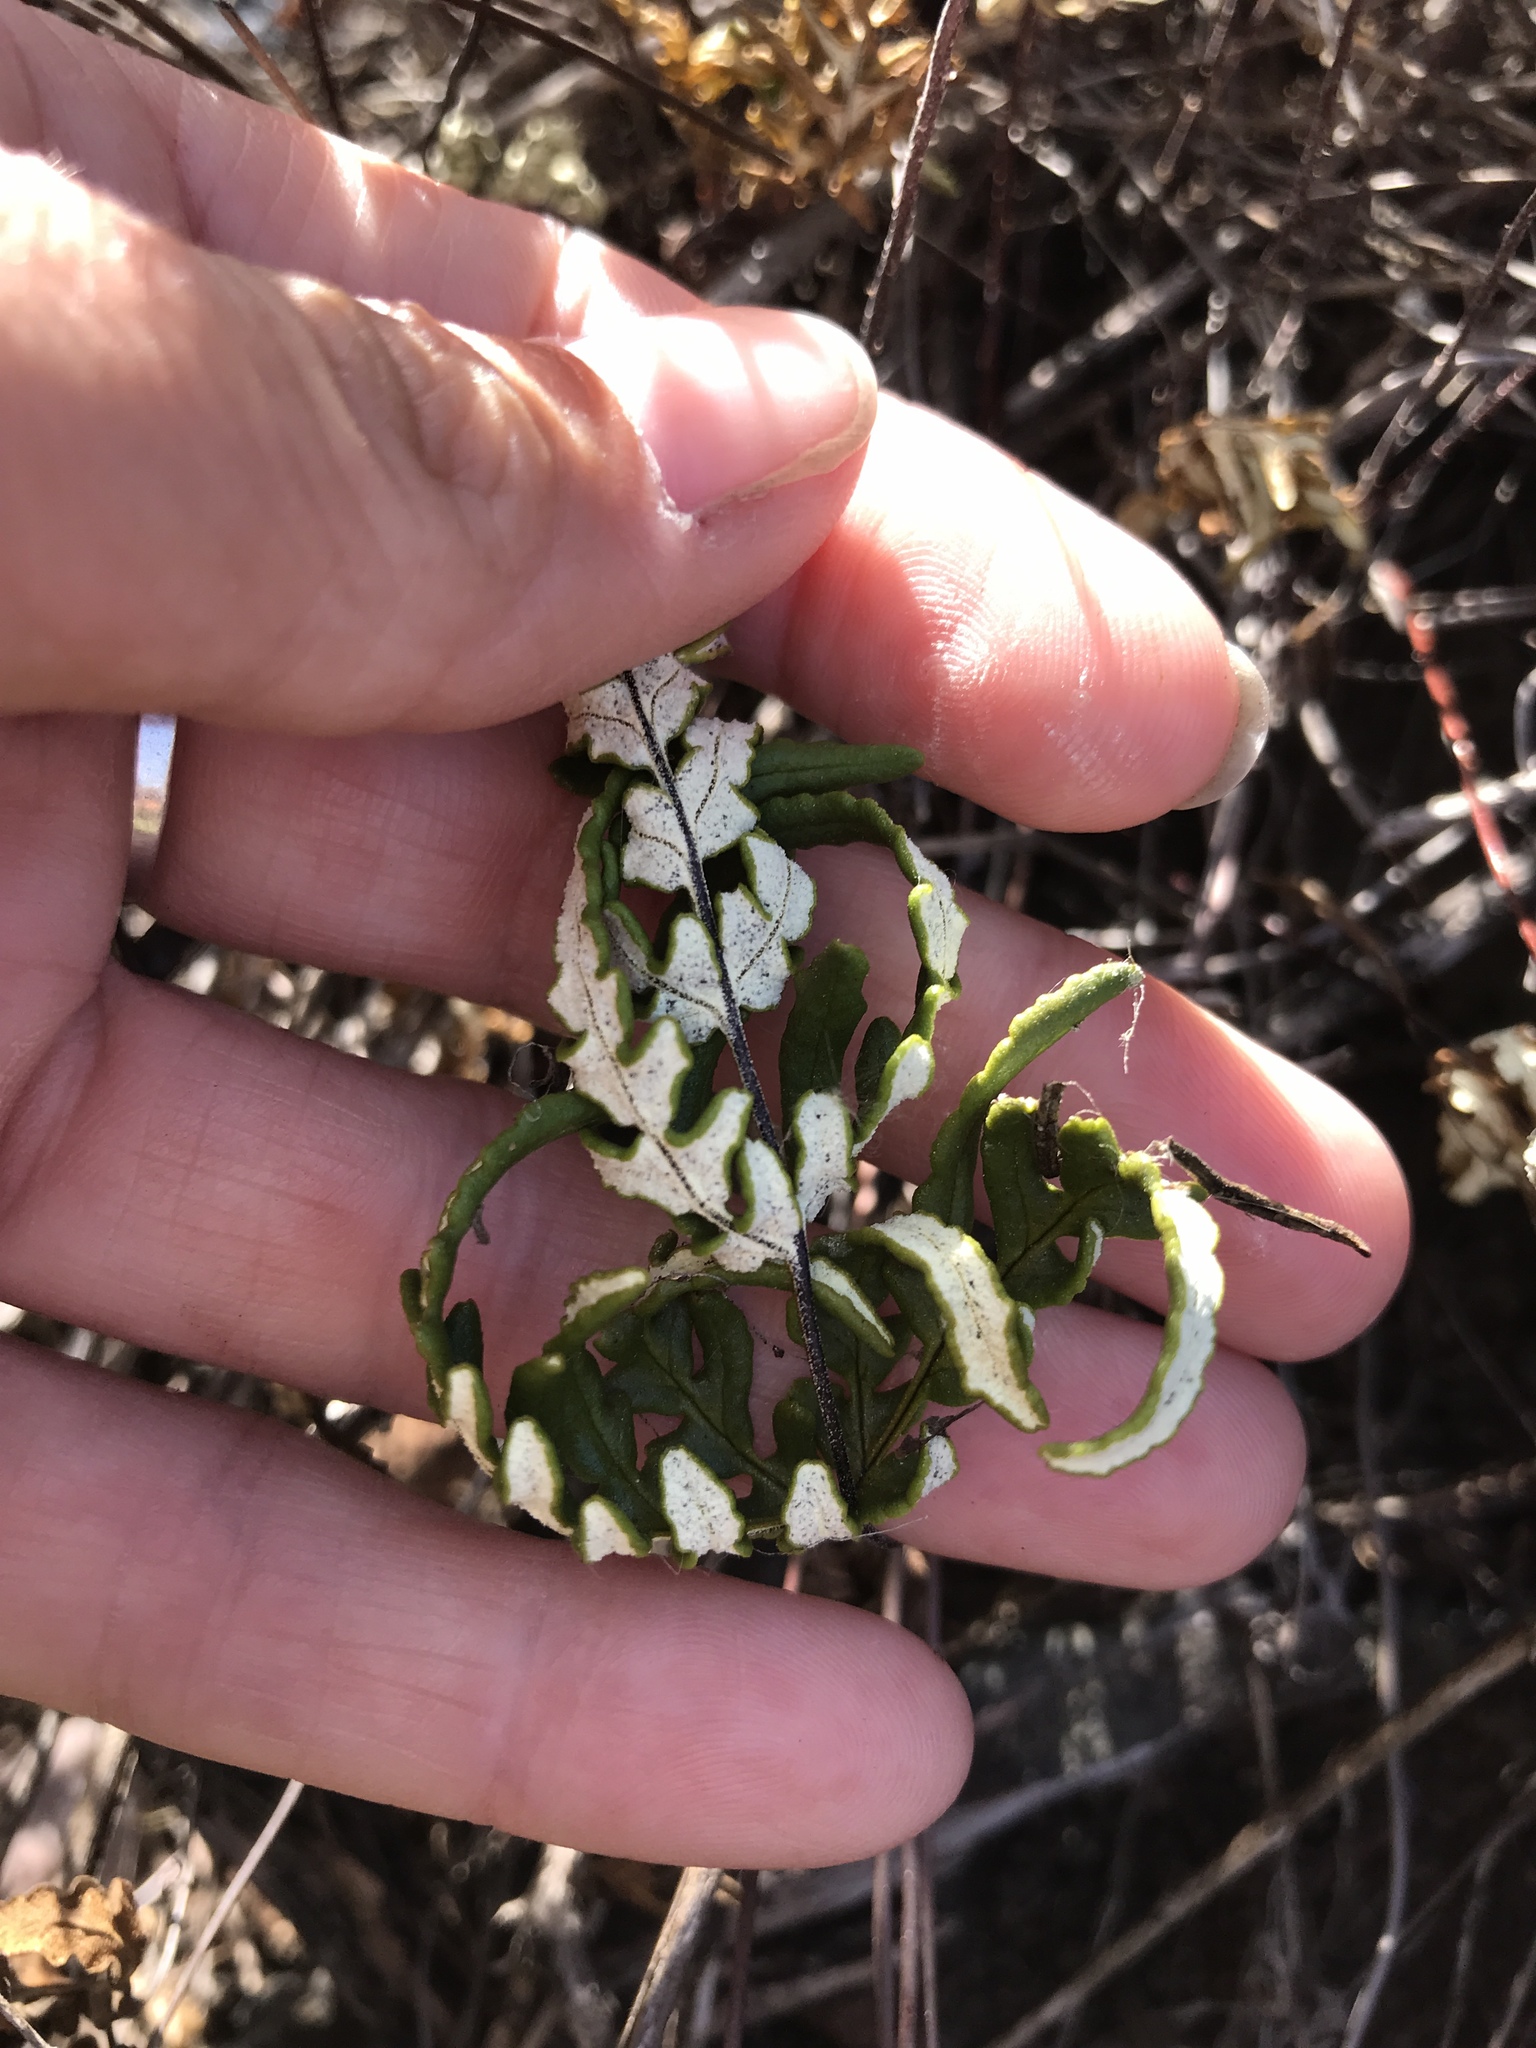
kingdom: Plantae
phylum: Tracheophyta
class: Polypodiopsida
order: Polypodiales
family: Pteridaceae
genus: Pentagramma
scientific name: Pentagramma viscosa
